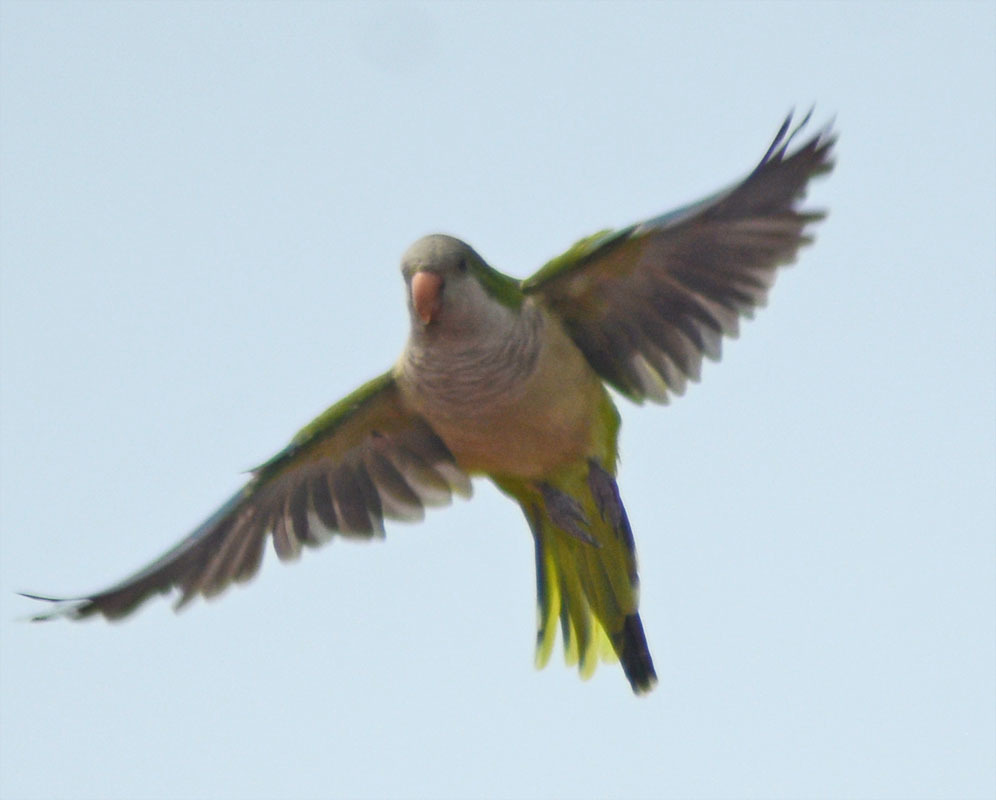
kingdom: Animalia
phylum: Chordata
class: Aves
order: Psittaciformes
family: Psittacidae
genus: Myiopsitta
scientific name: Myiopsitta monachus
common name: Monk parakeet
